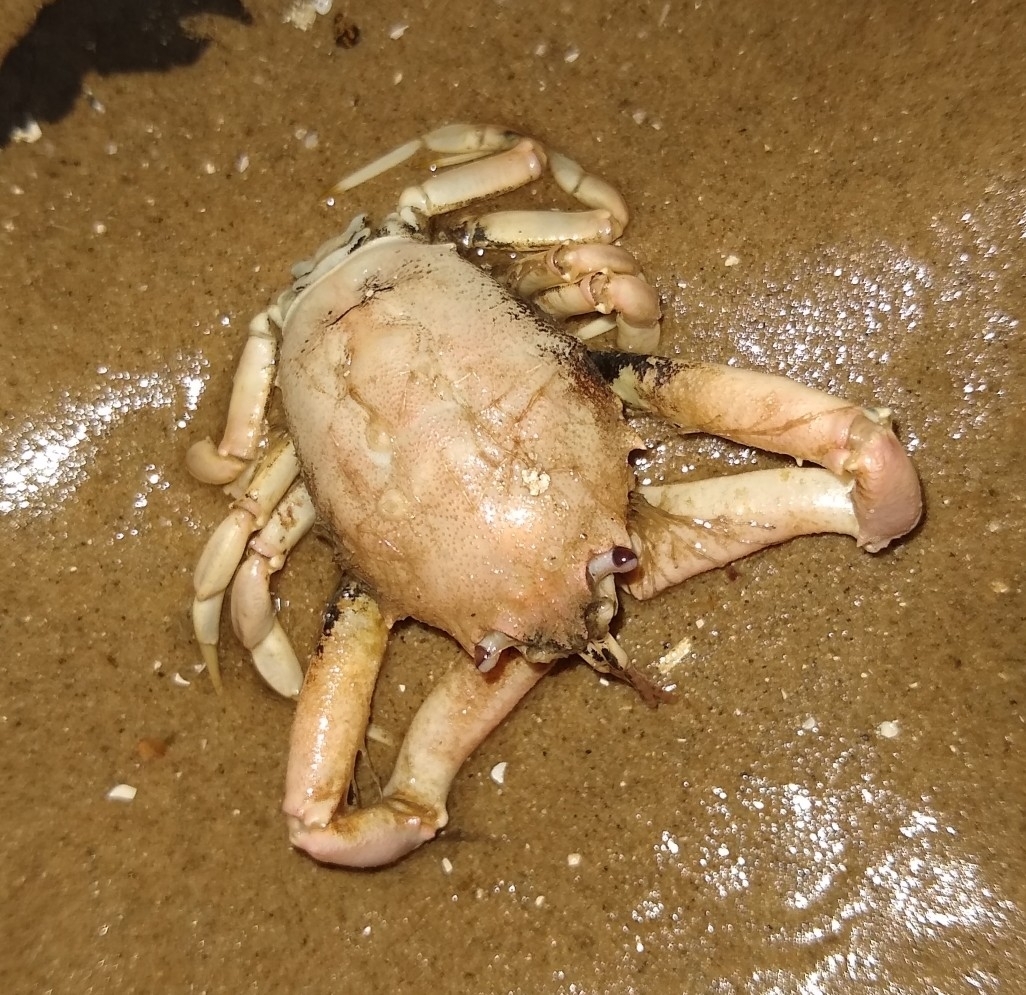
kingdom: Animalia
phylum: Arthropoda
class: Malacostraca
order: Decapoda
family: Corystidae
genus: Corystes
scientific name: Corystes cassivelaunus
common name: Masked crab
